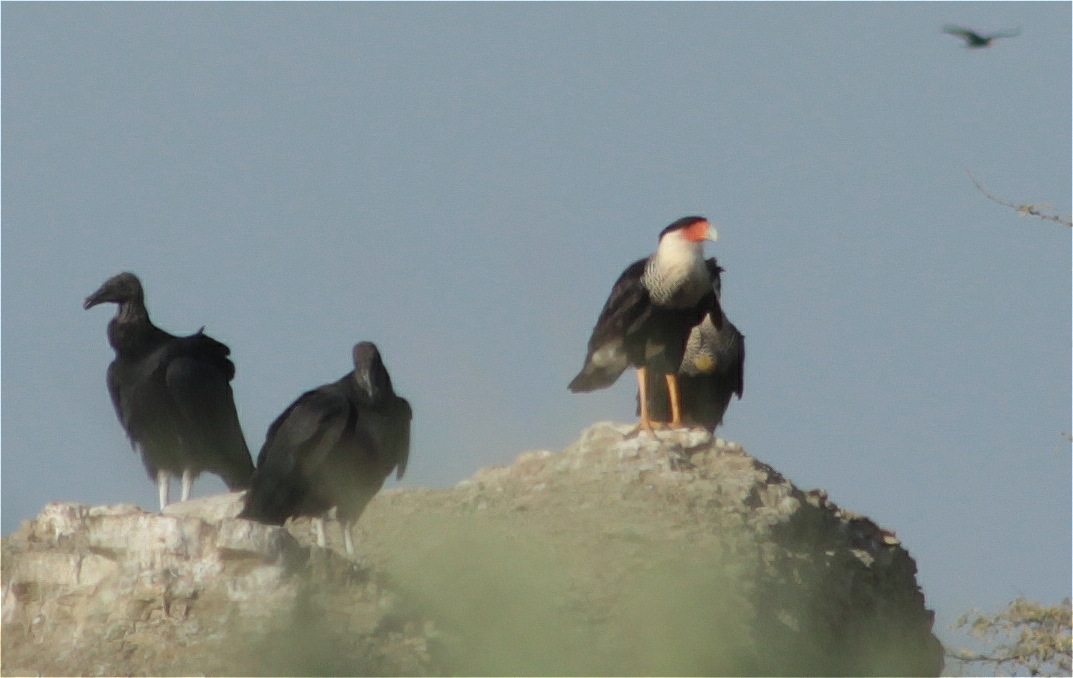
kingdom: Animalia
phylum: Chordata
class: Aves
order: Falconiformes
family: Falconidae
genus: Caracara
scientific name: Caracara plancus
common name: Southern caracara
